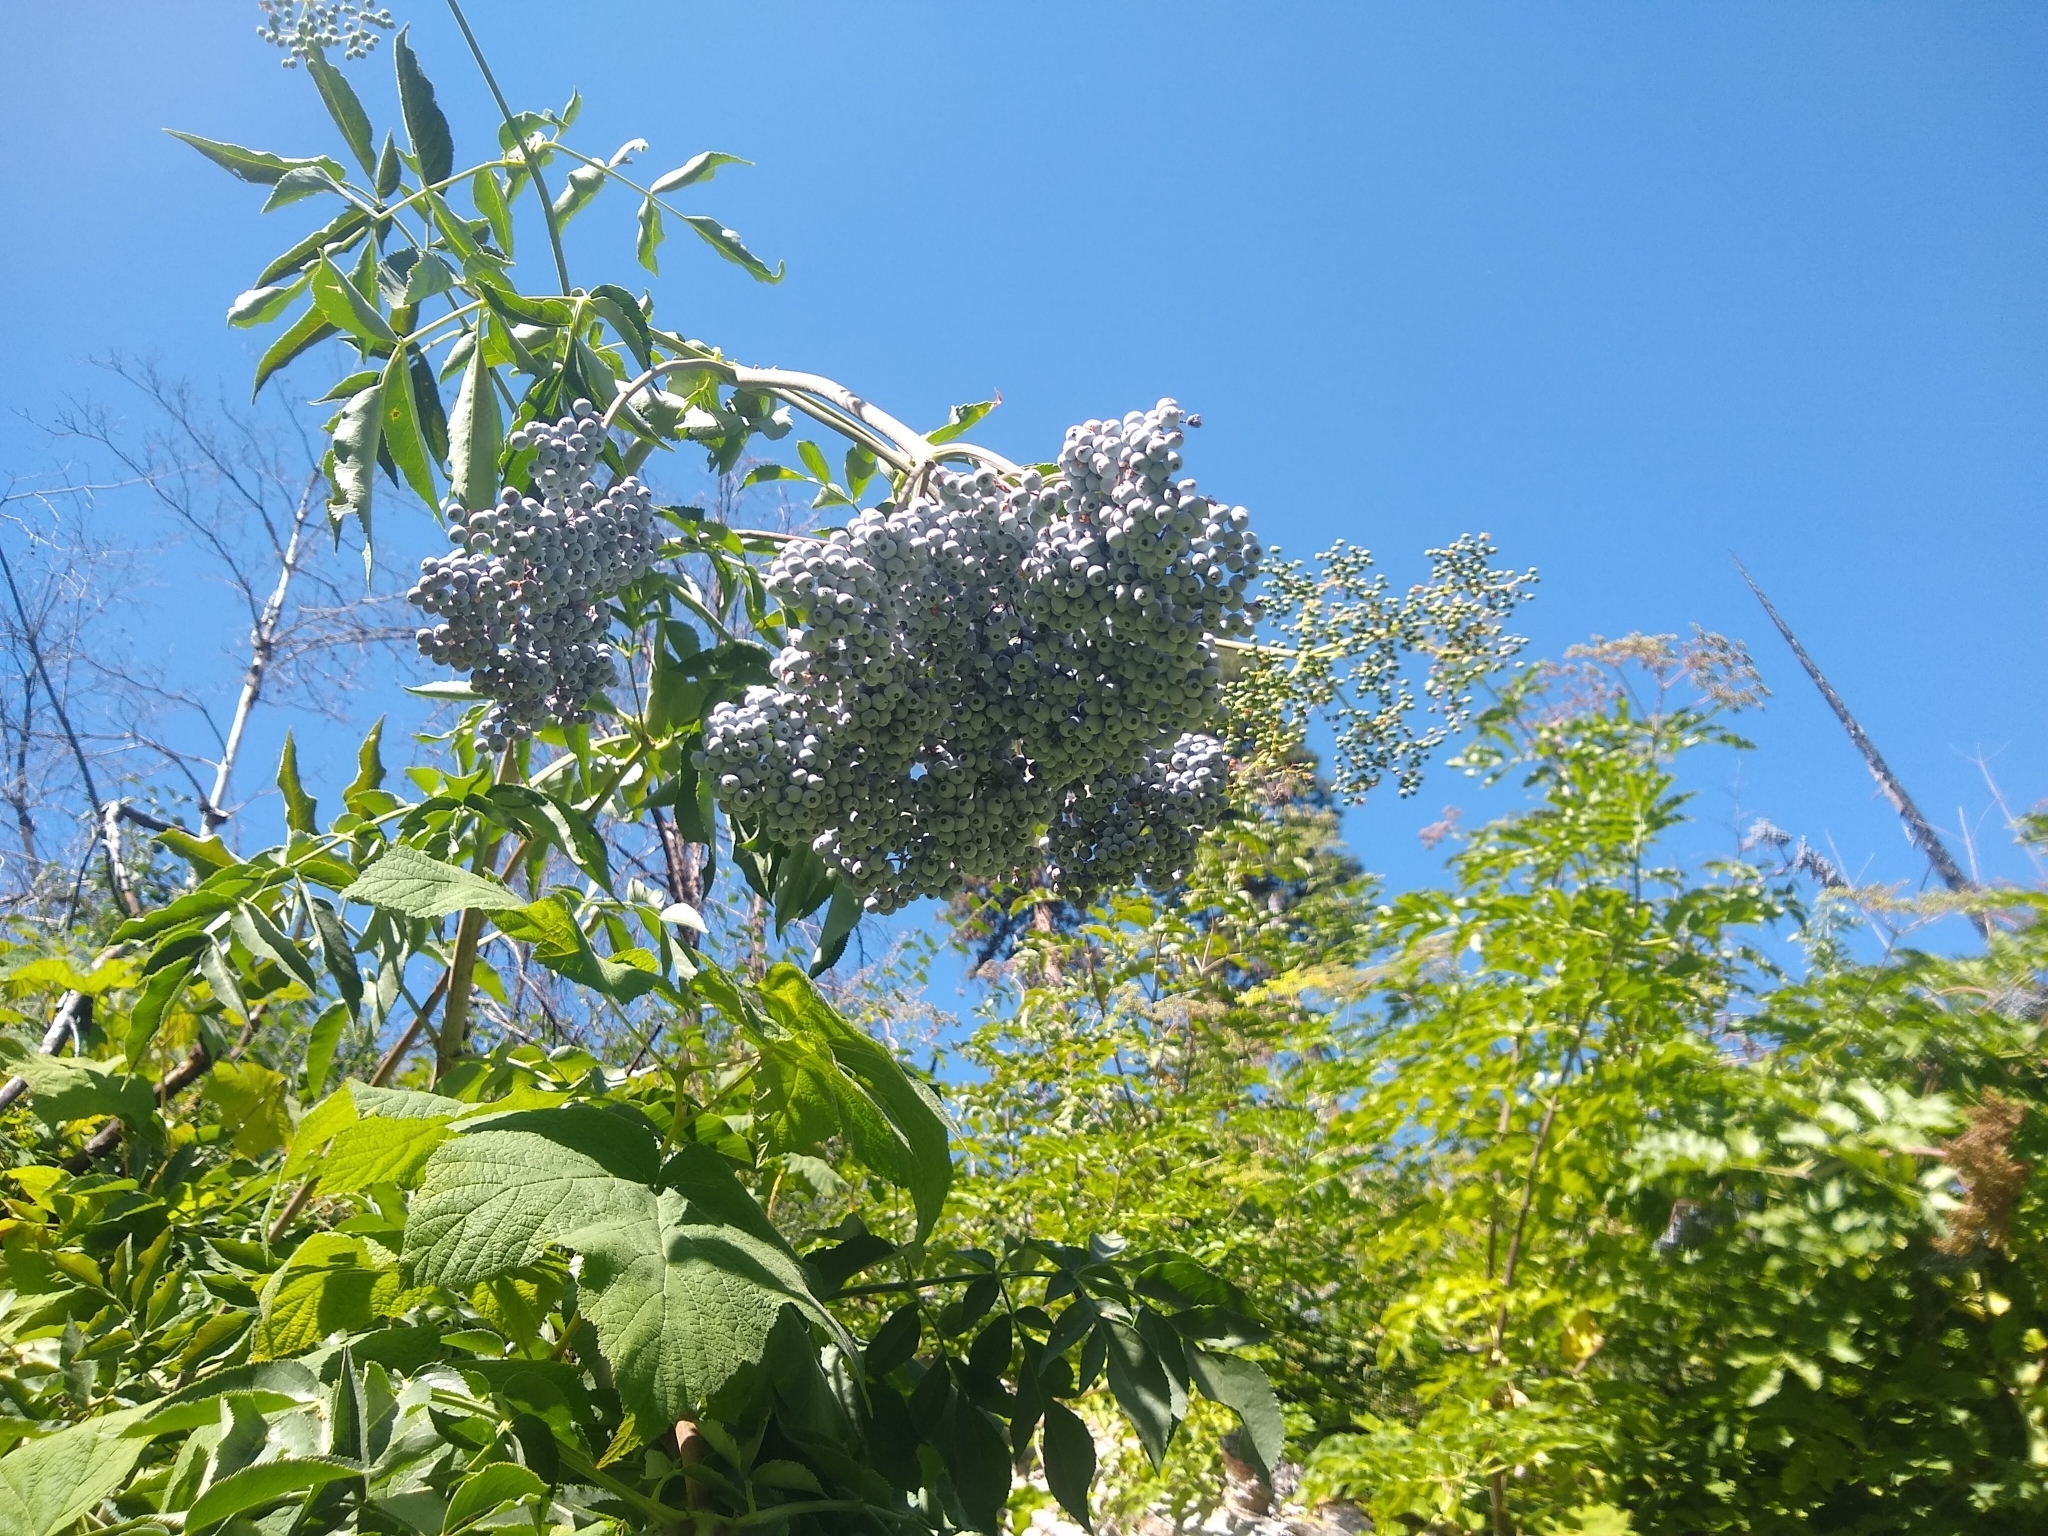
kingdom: Plantae
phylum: Tracheophyta
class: Magnoliopsida
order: Dipsacales
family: Viburnaceae
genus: Sambucus
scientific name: Sambucus cerulea
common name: Blue elder
